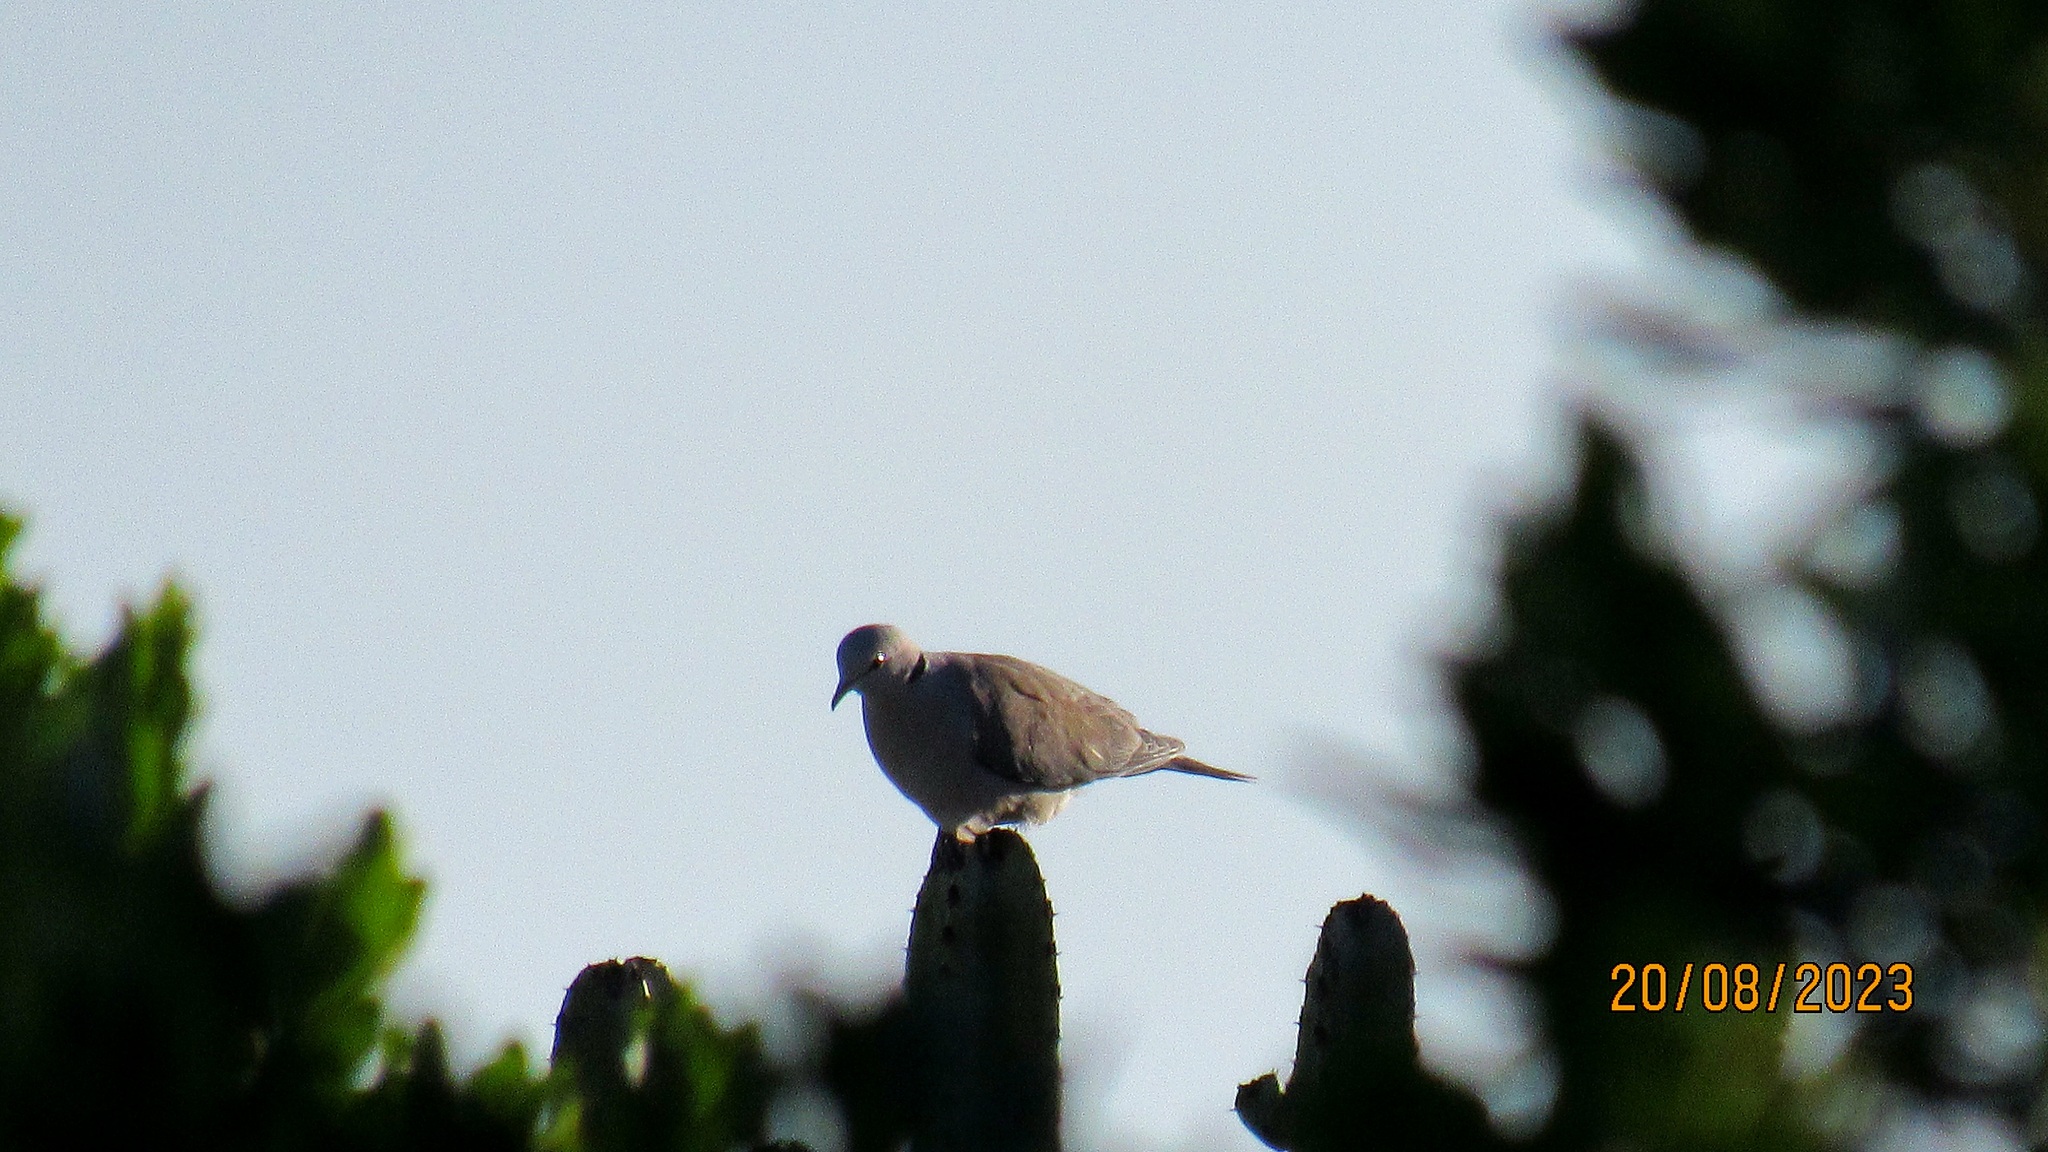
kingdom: Animalia
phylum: Chordata
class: Aves
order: Columbiformes
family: Columbidae
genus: Streptopelia
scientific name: Streptopelia capicola
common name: Ring-necked dove
